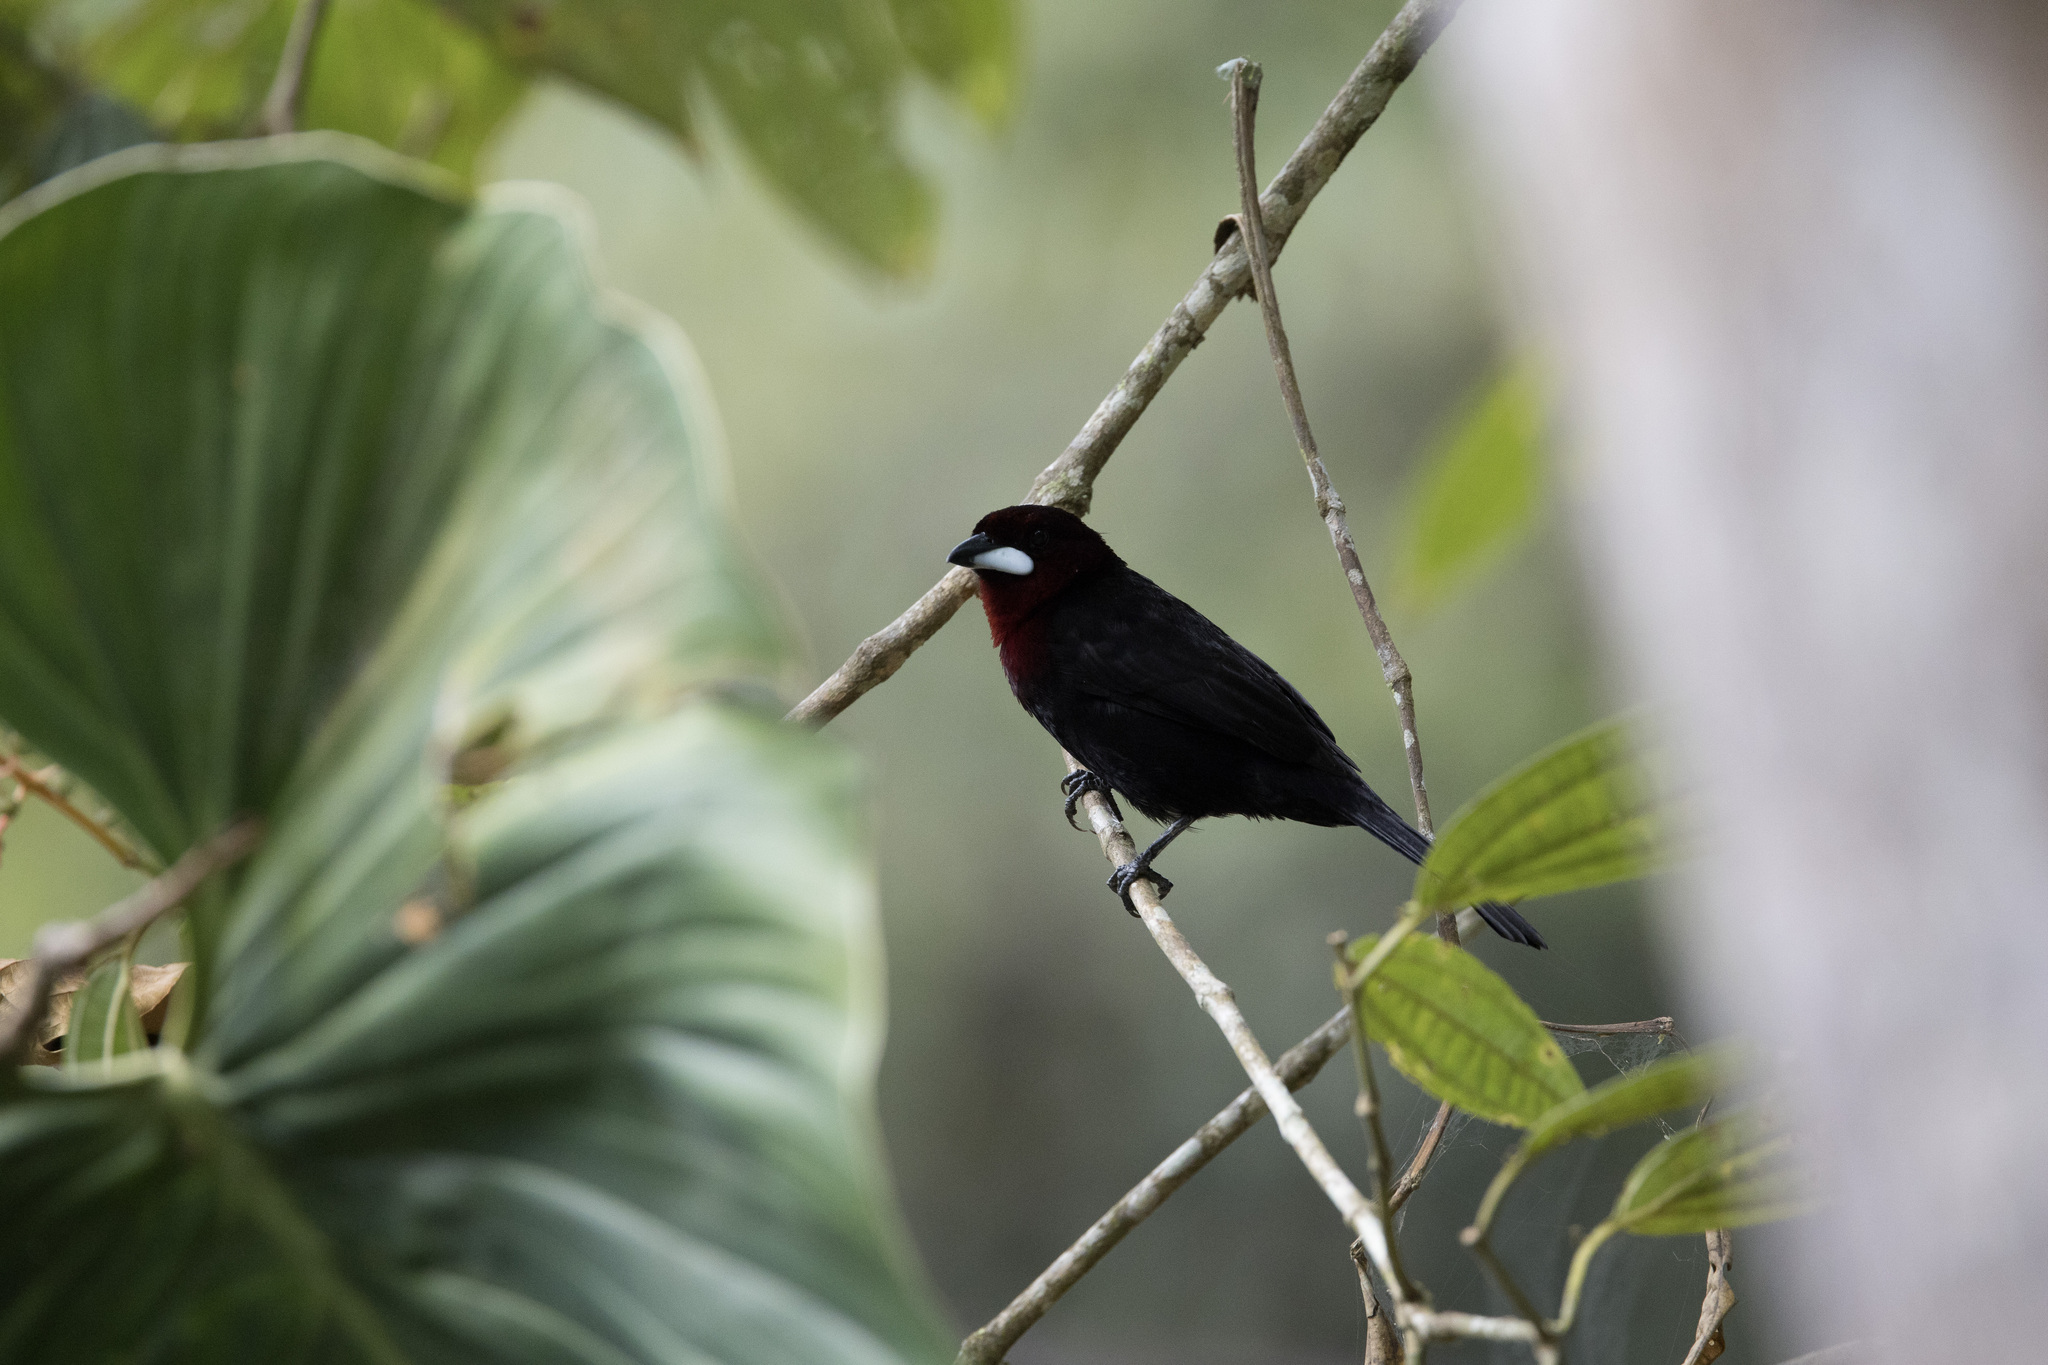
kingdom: Animalia
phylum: Chordata
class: Aves
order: Passeriformes
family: Thraupidae
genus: Ramphocelus
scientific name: Ramphocelus carbo
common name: Silver-beaked tanager
